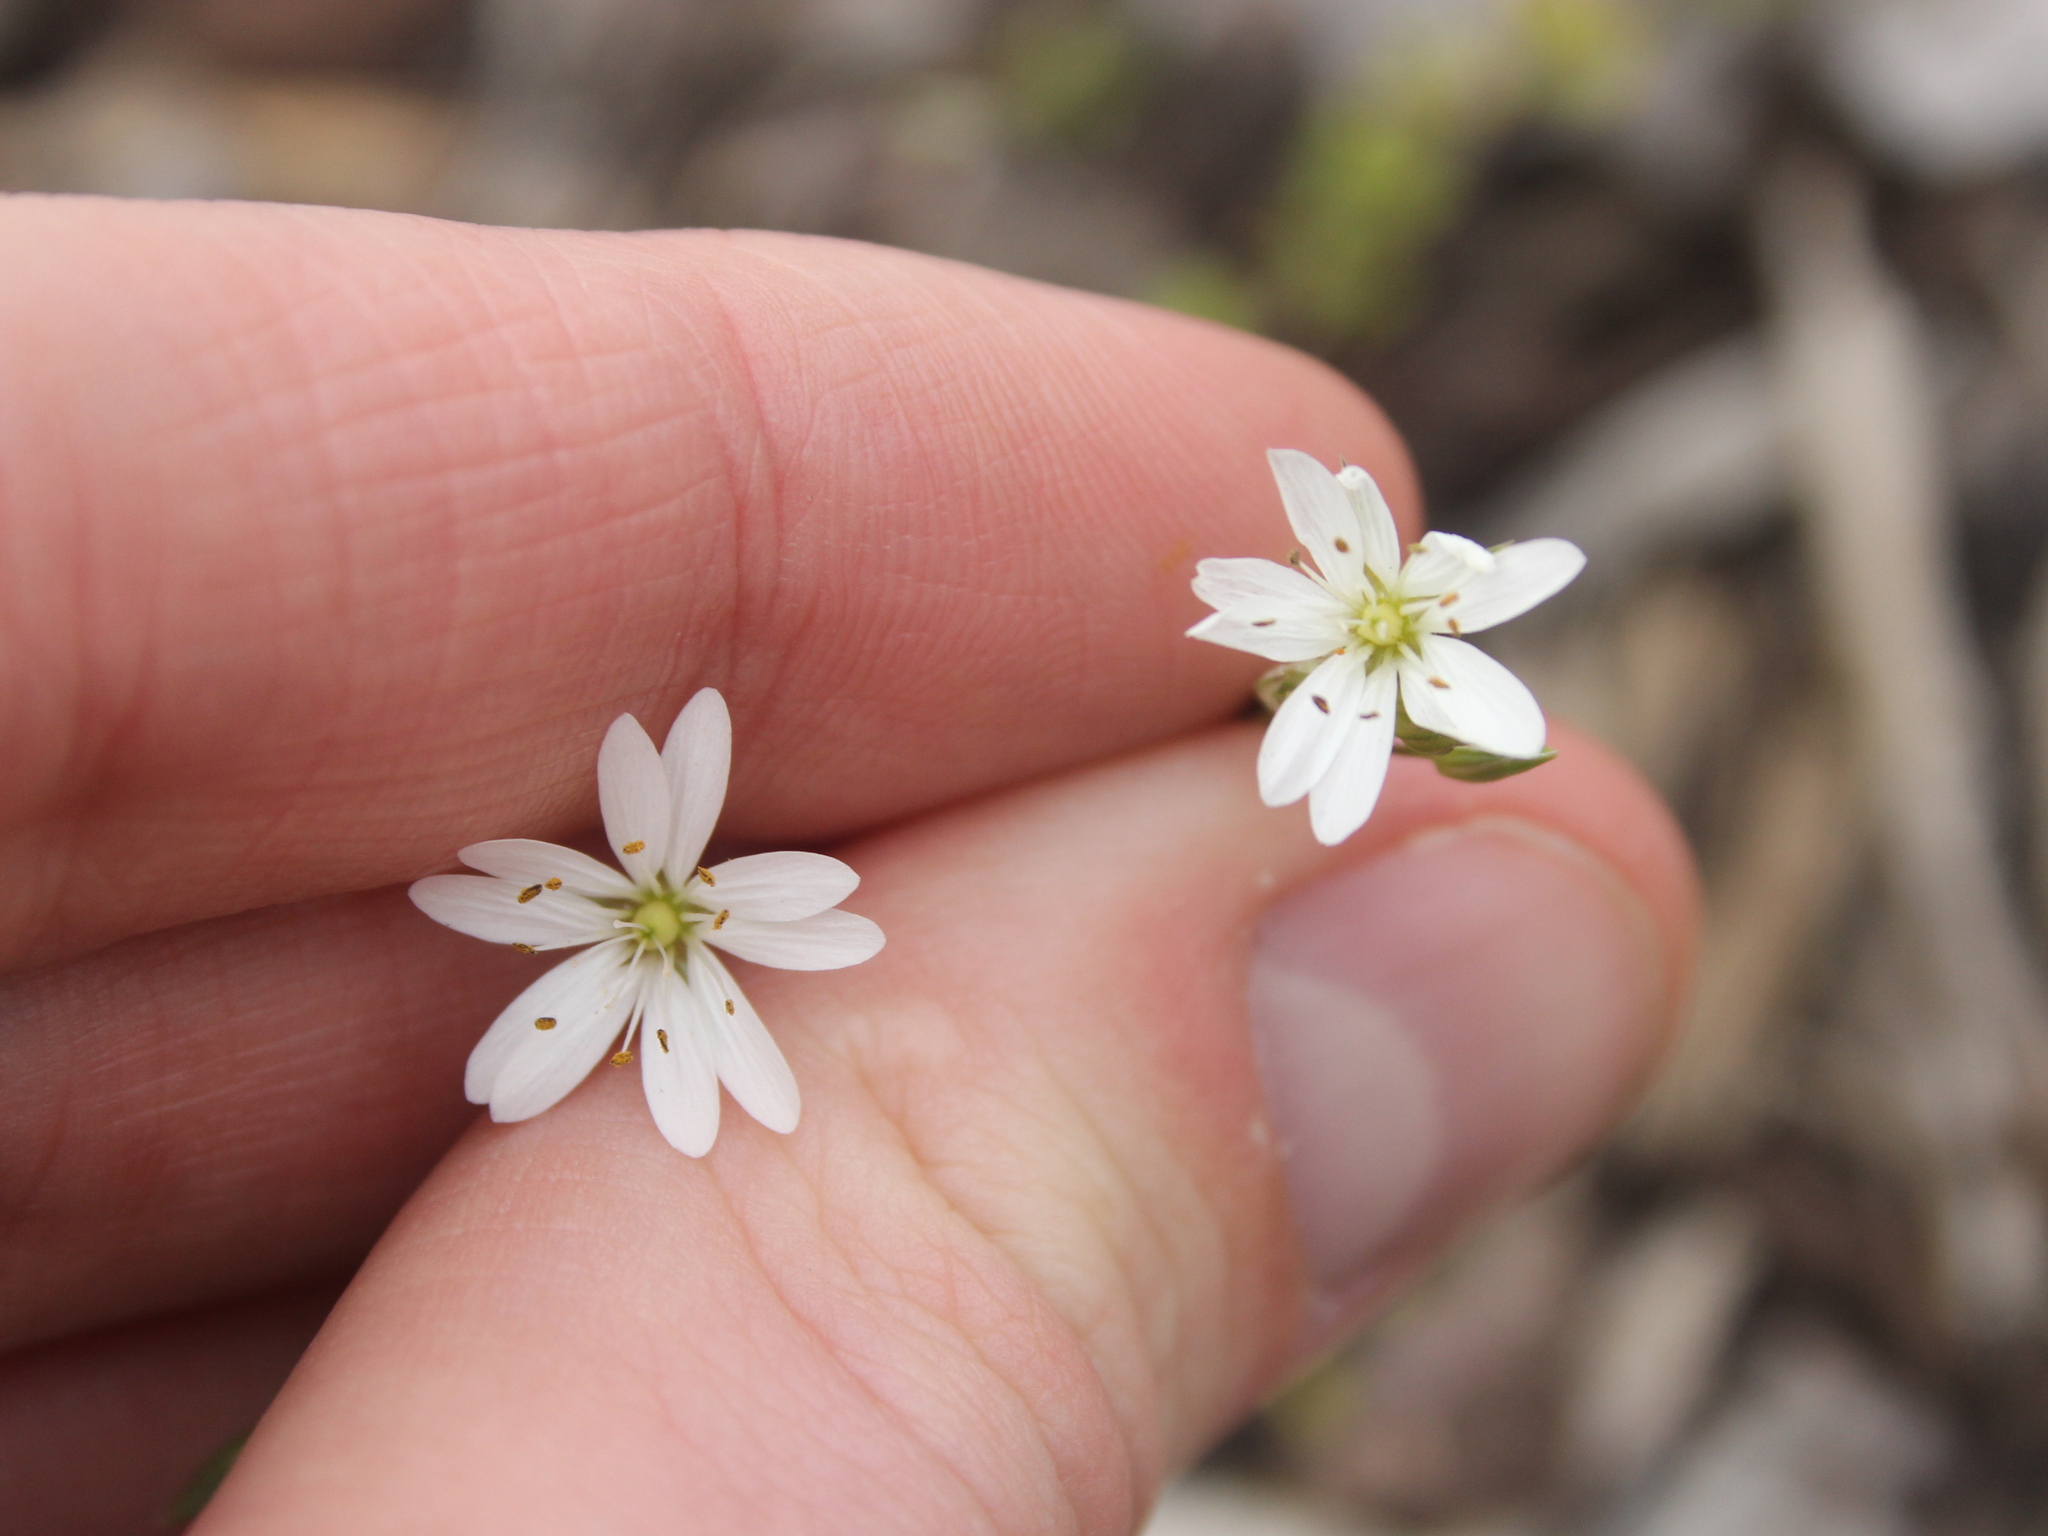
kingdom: Plantae
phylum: Tracheophyta
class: Magnoliopsida
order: Caryophyllales
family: Caryophyllaceae
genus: Stellaria
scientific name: Stellaria graminea
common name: Grass-like starwort
